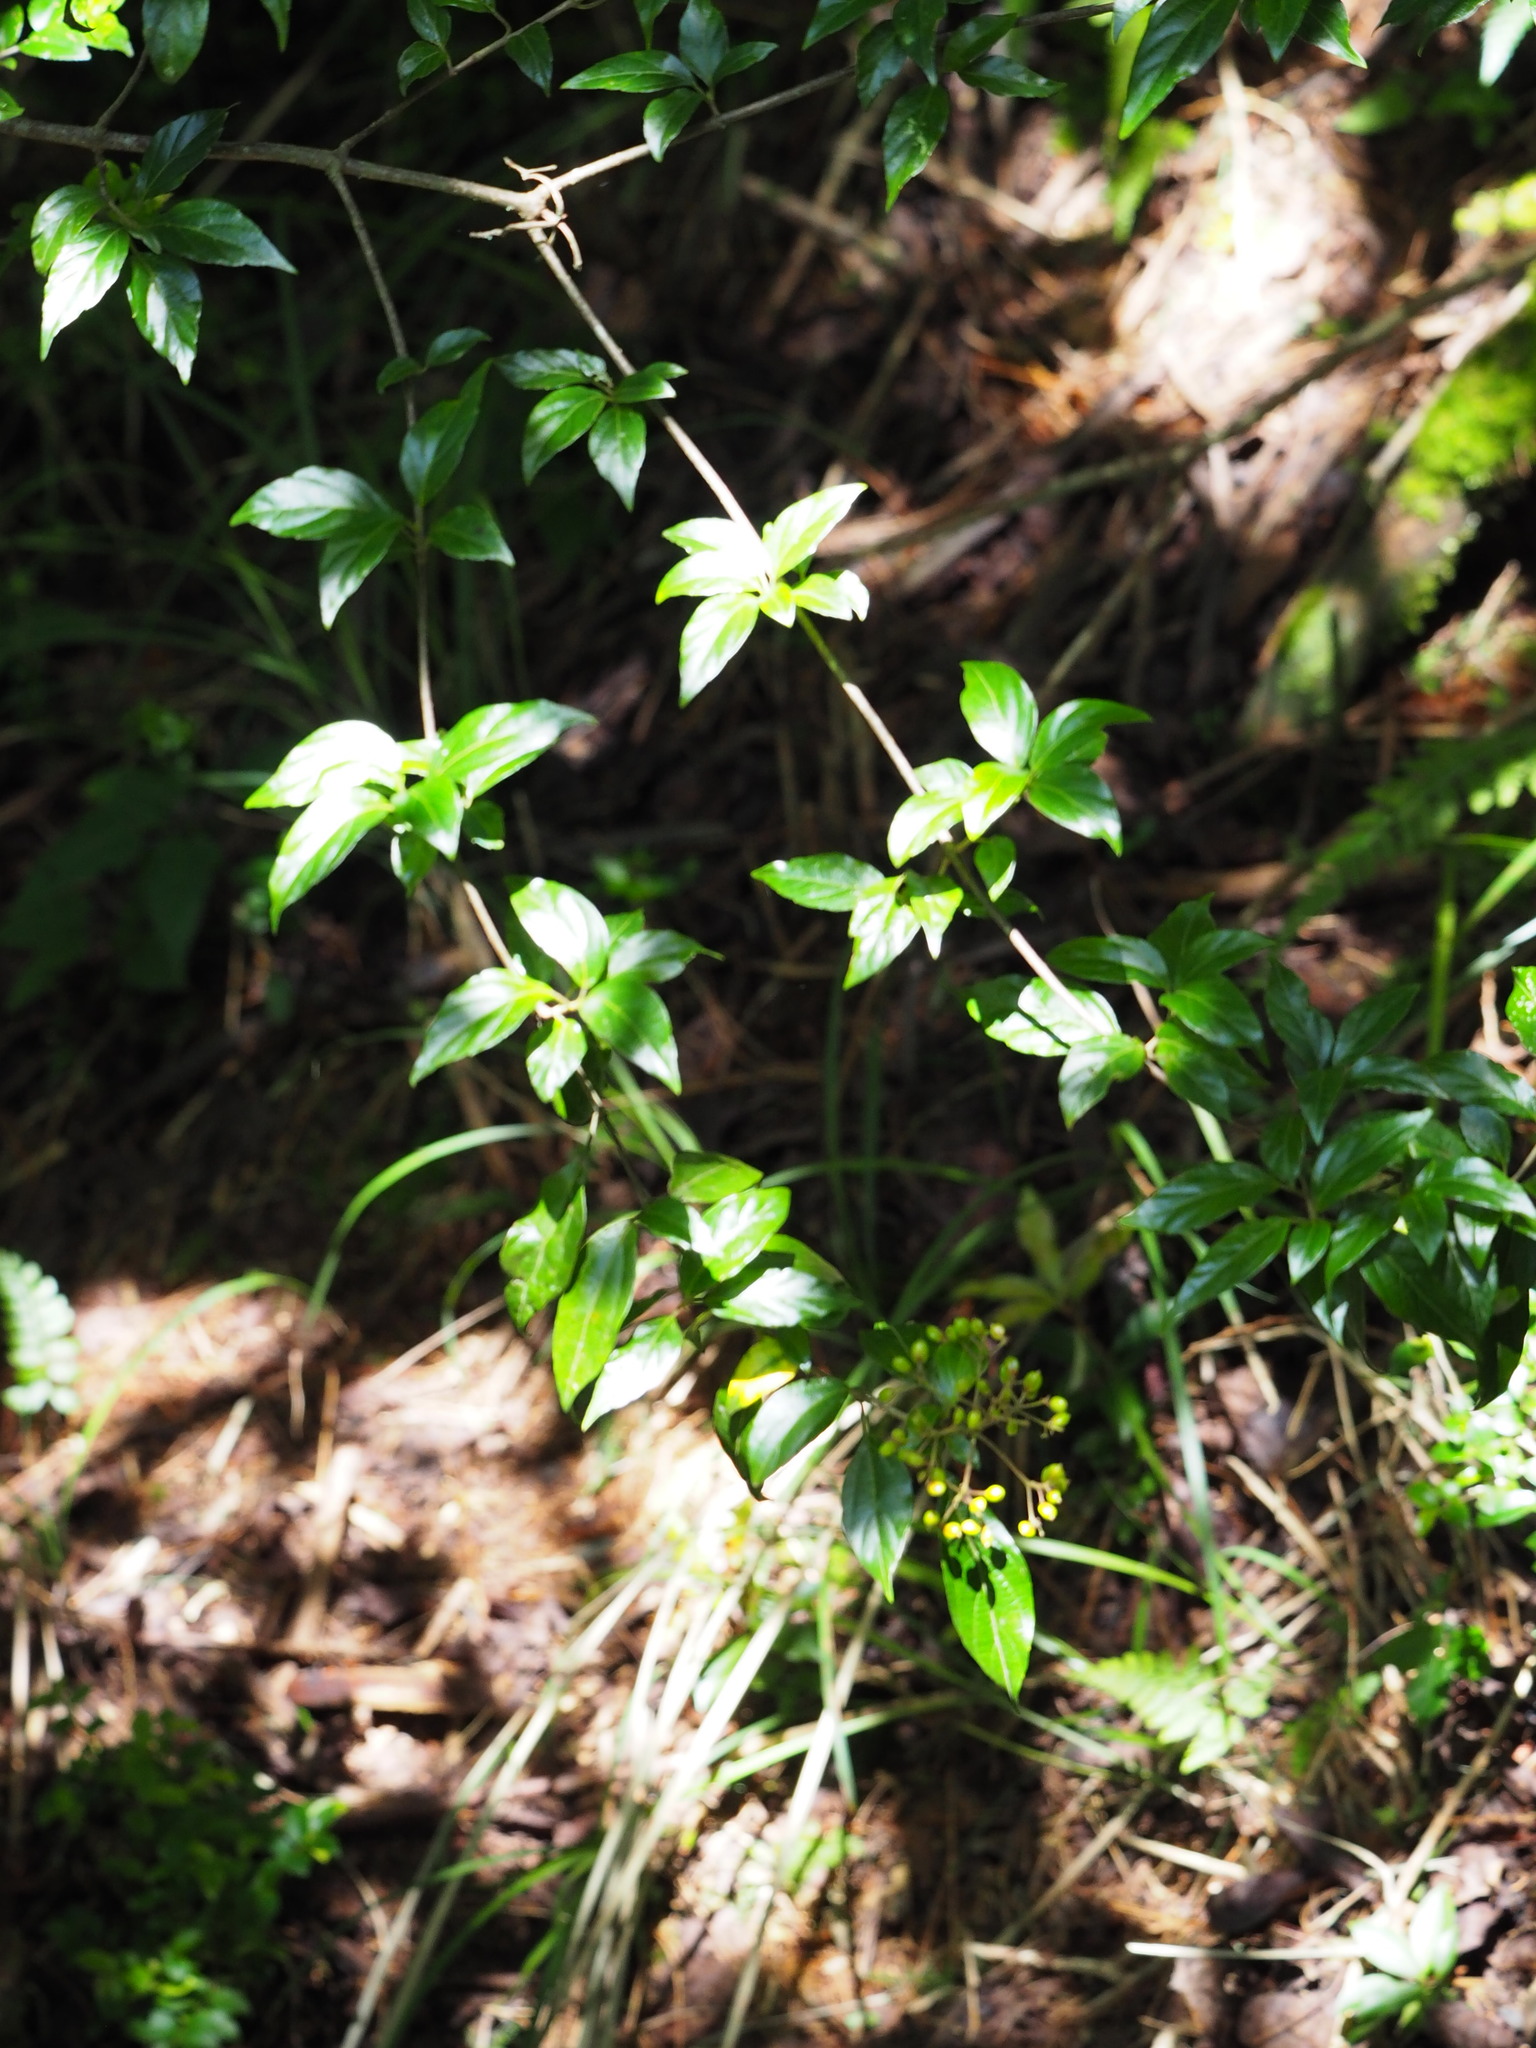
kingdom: Plantae
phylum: Tracheophyta
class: Magnoliopsida
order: Dipsacales
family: Viburnaceae
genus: Viburnum
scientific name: Viburnum foetidum
